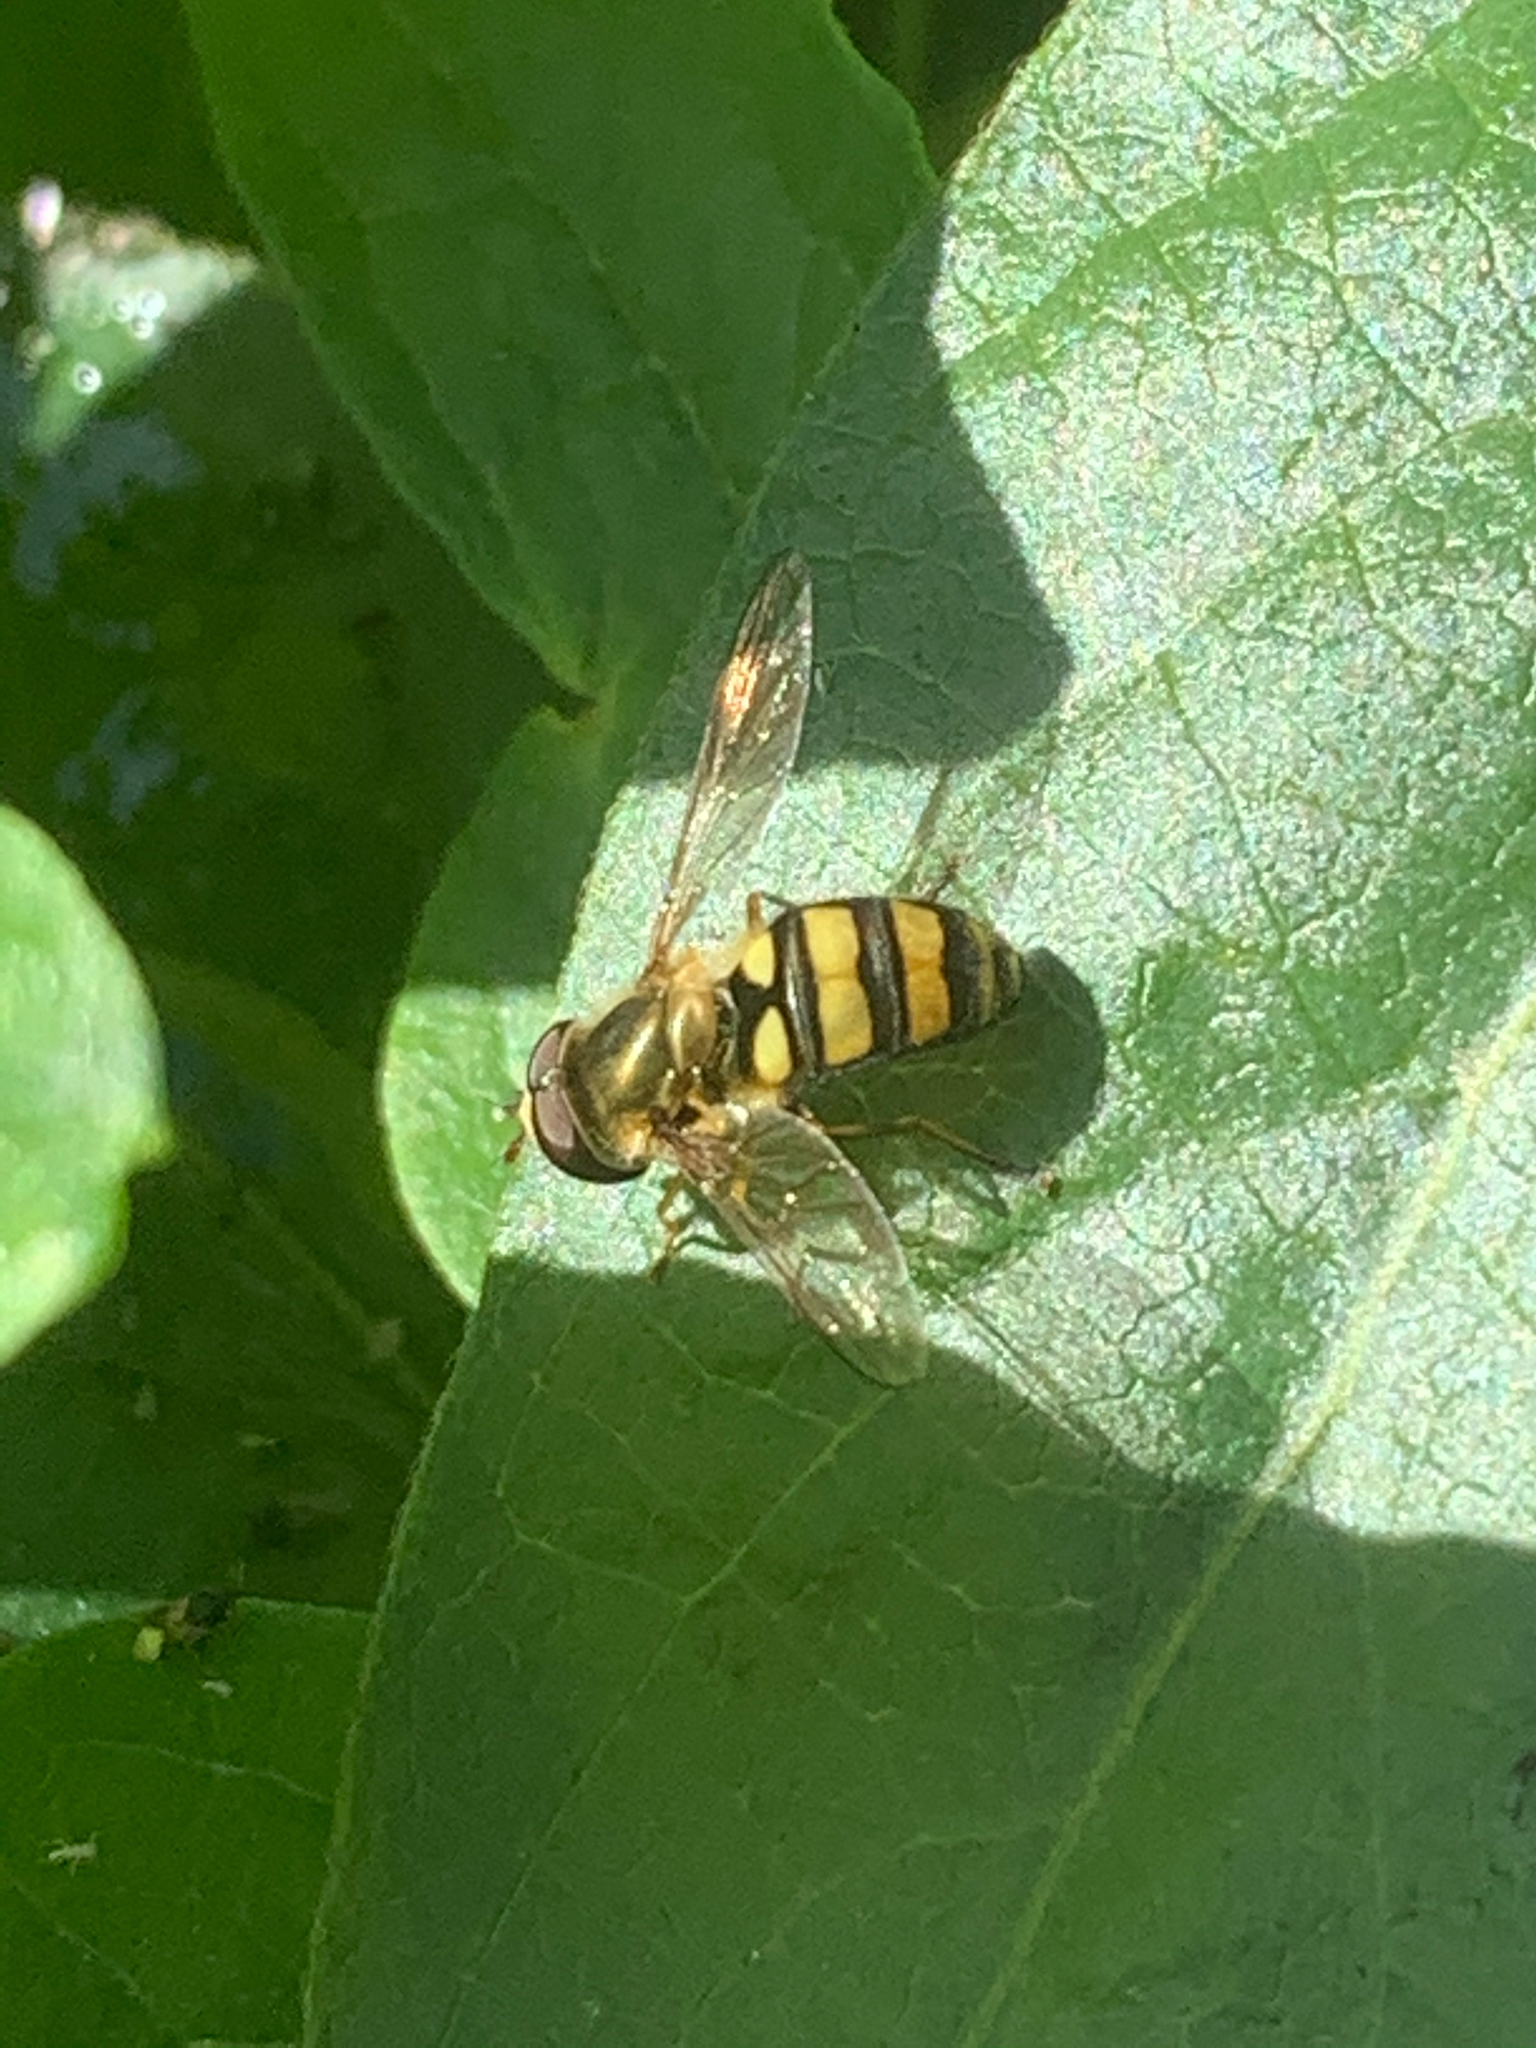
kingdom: Animalia
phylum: Arthropoda
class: Insecta
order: Diptera
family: Syrphidae
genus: Eupeodes
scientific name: Eupeodes
